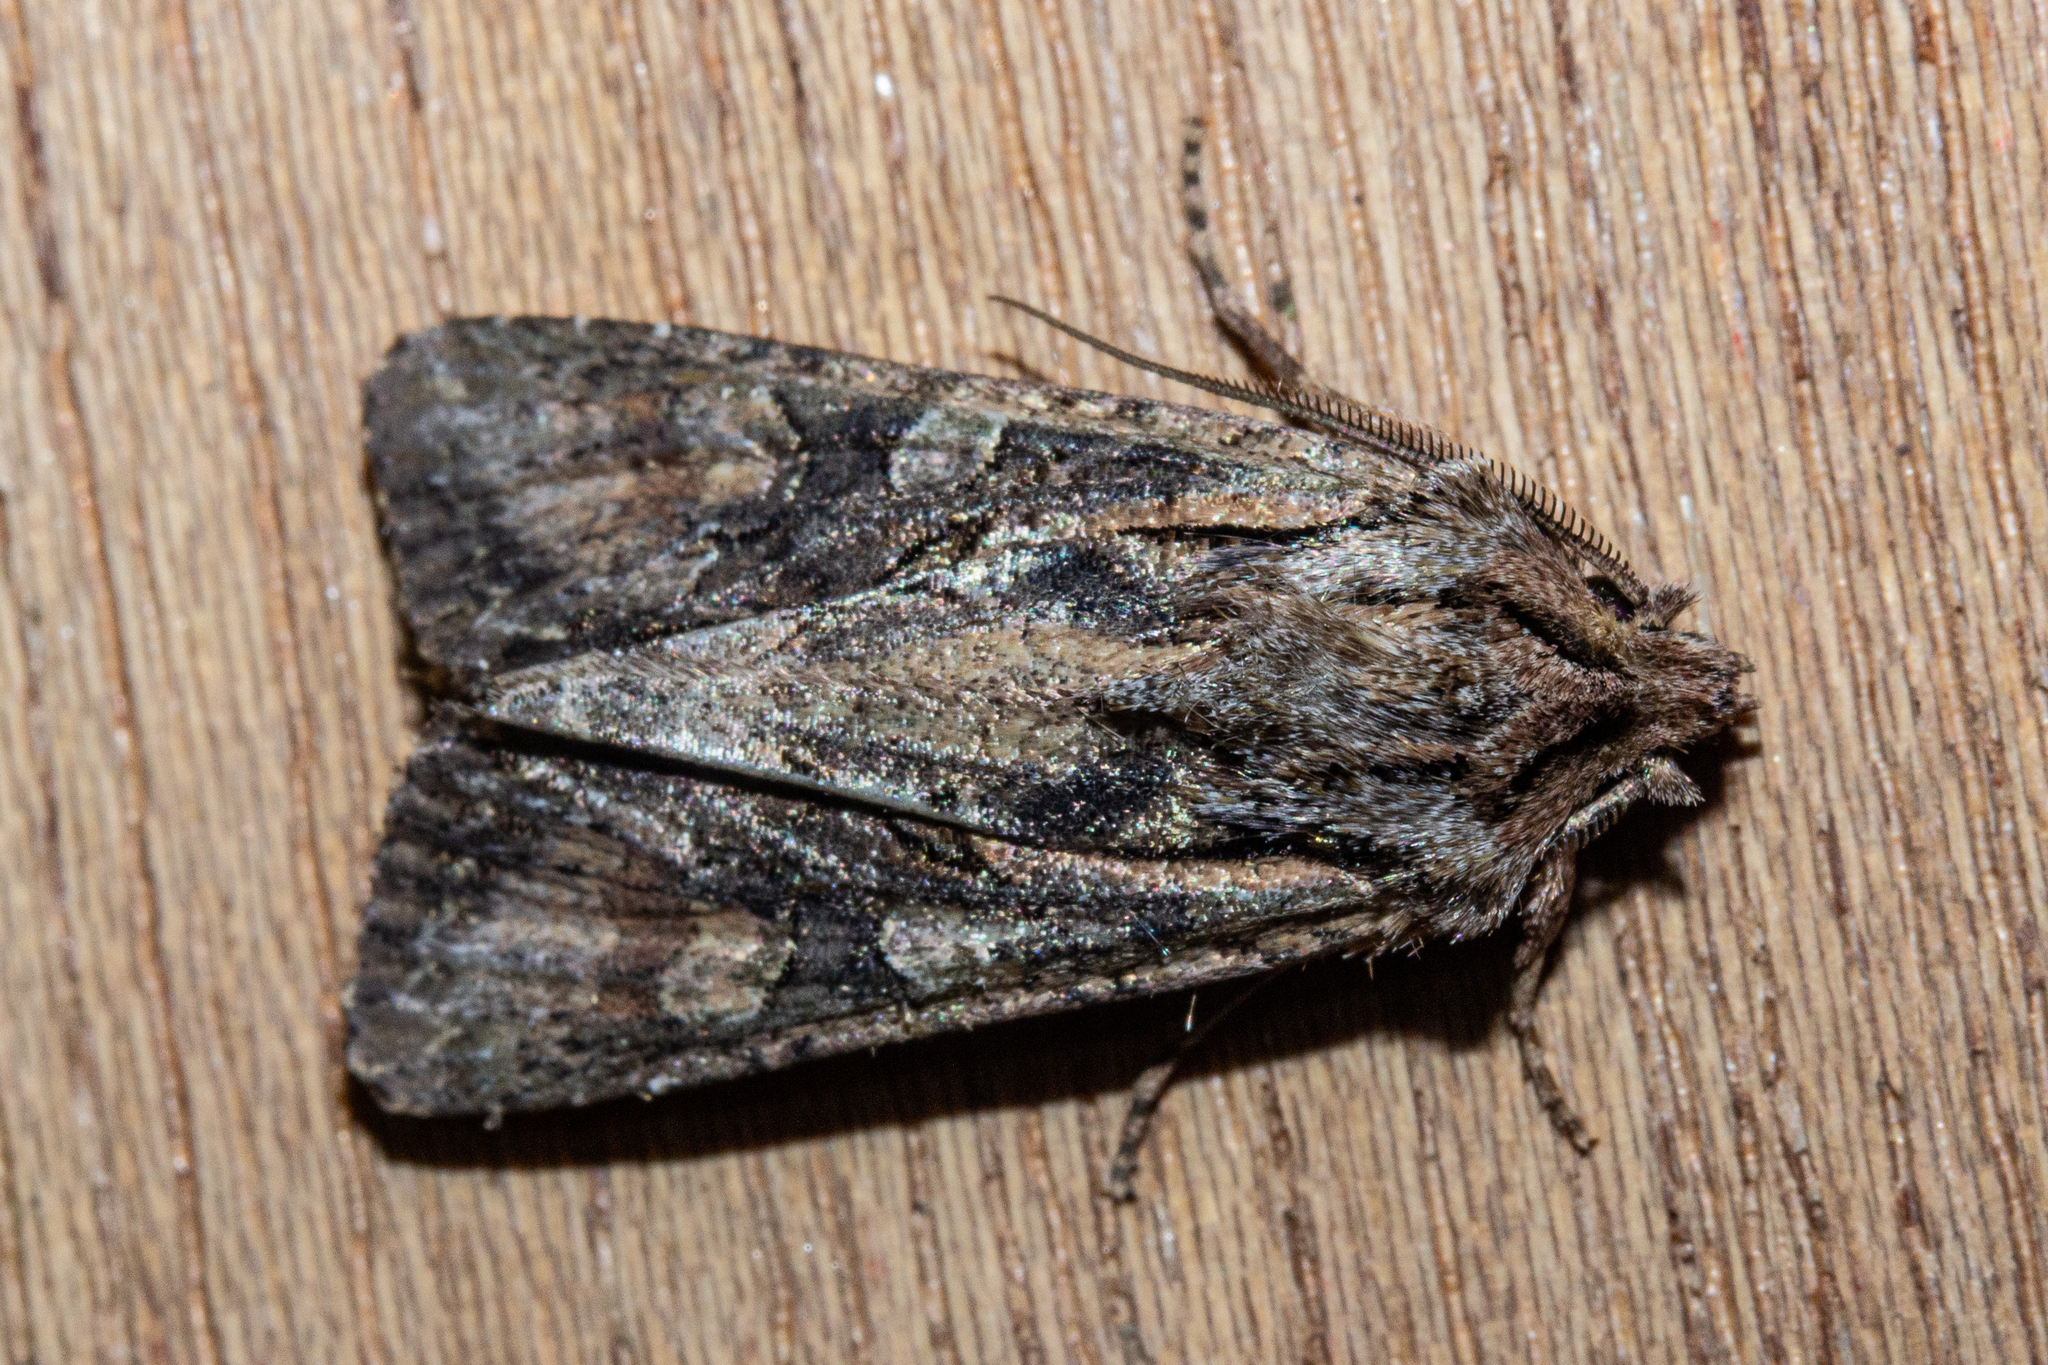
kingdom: Animalia
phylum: Arthropoda
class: Insecta
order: Lepidoptera
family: Noctuidae
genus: Ichneutica
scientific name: Ichneutica mutans
